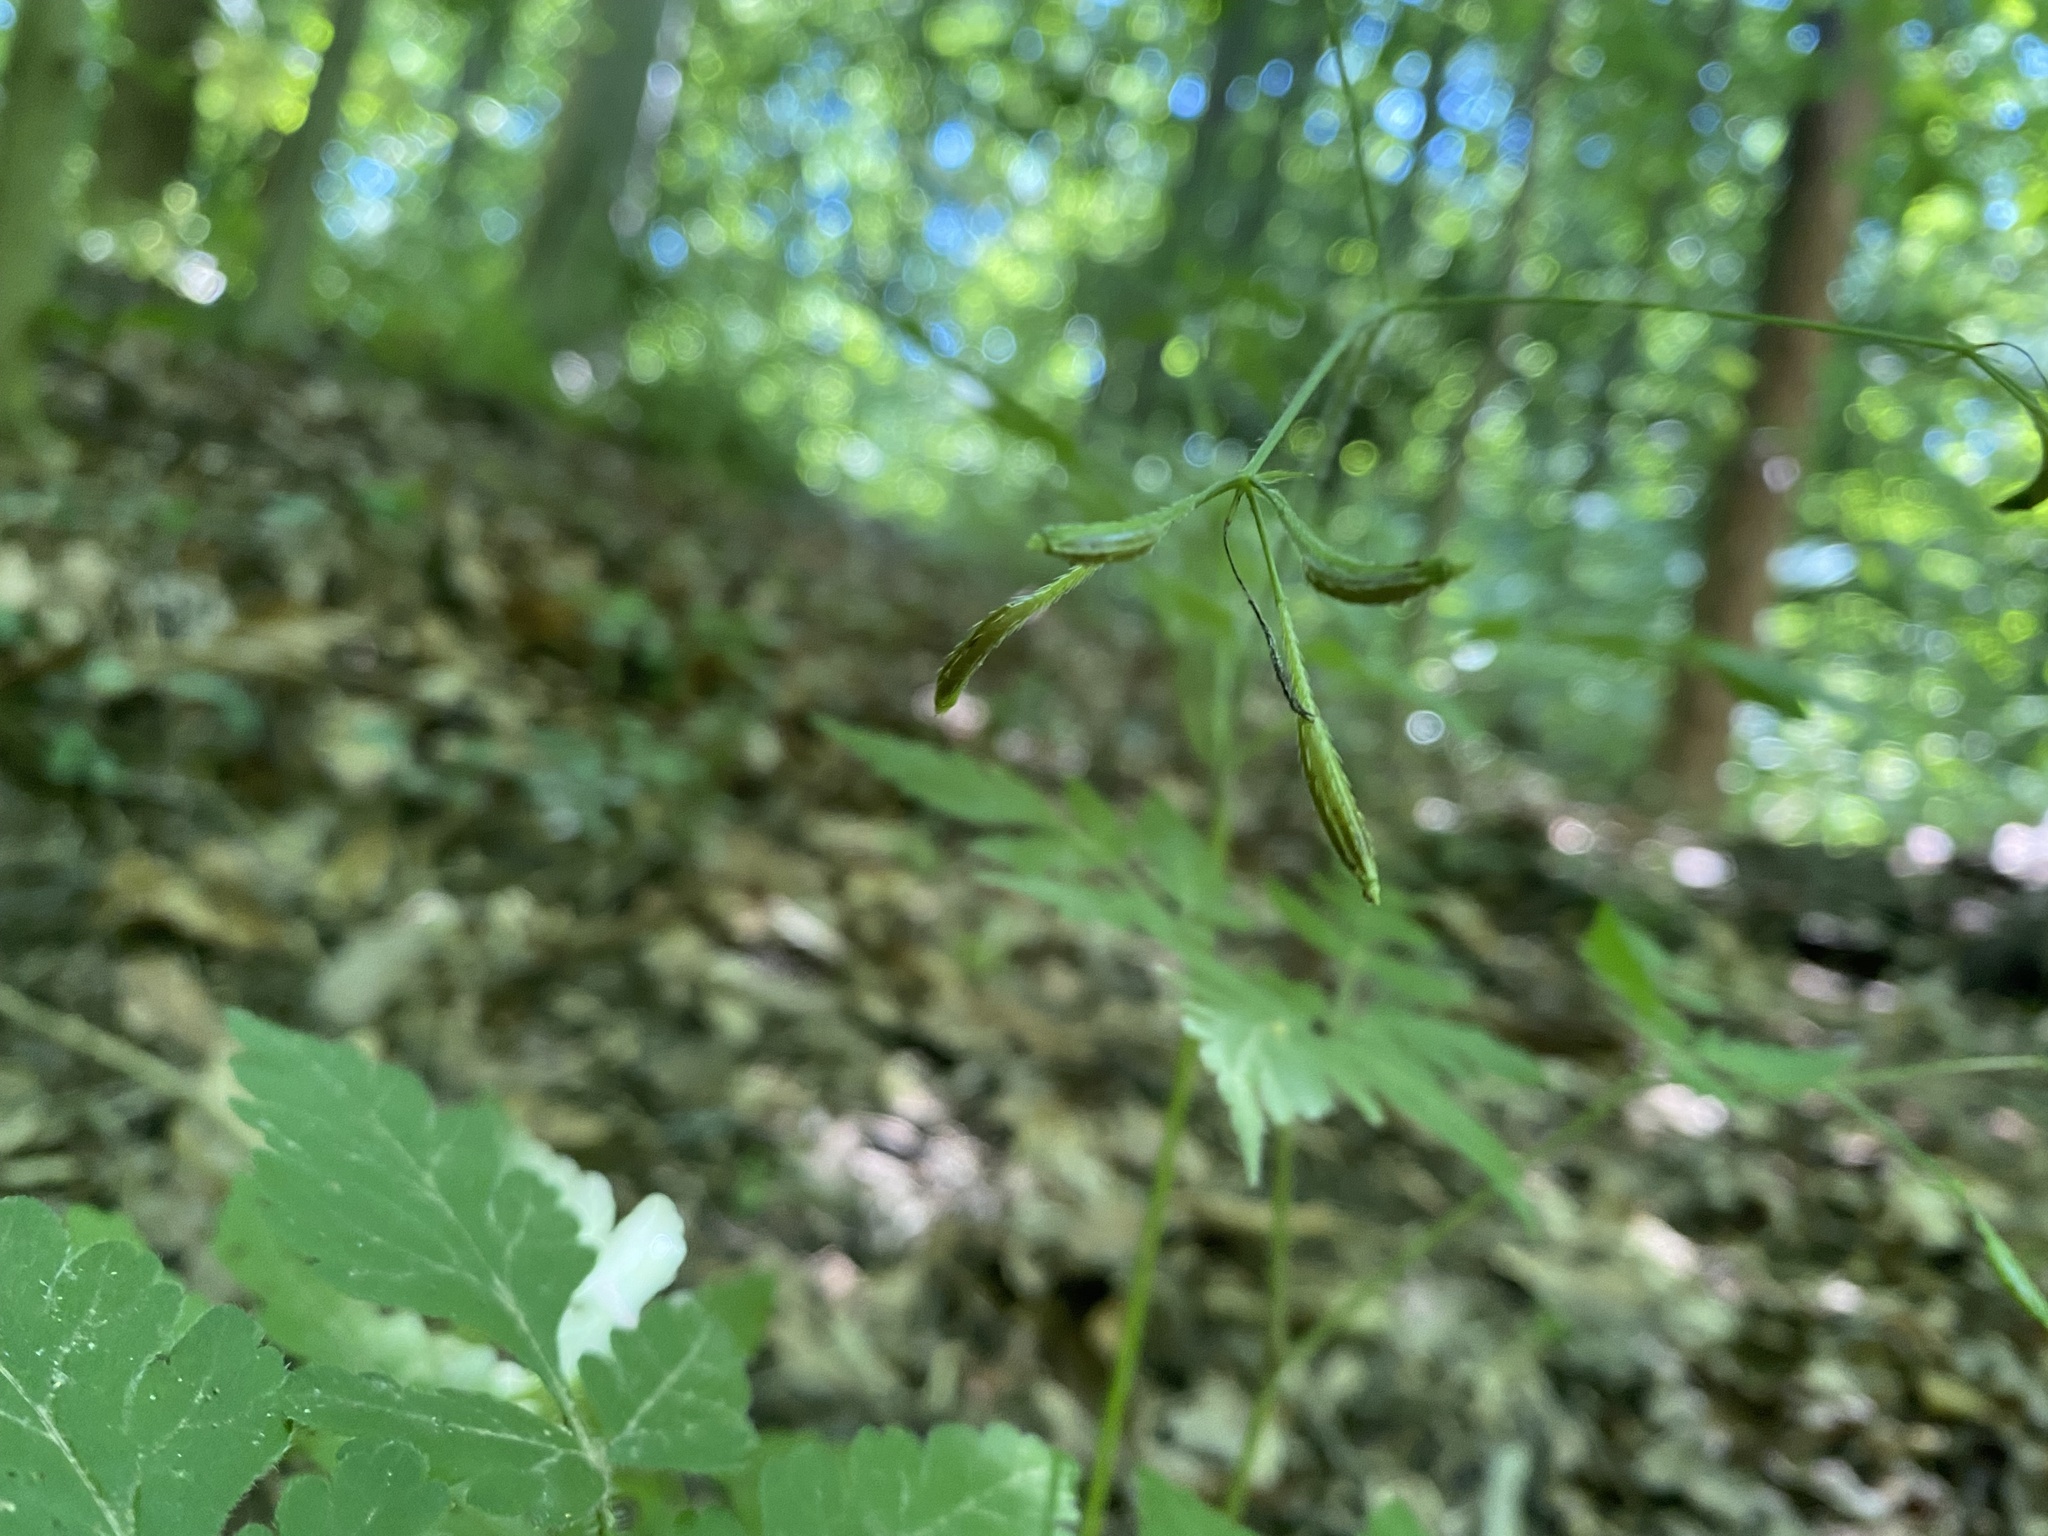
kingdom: Plantae
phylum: Tracheophyta
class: Magnoliopsida
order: Apiales
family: Apiaceae
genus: Osmorhiza
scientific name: Osmorhiza claytonii
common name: Hairy sweet cicely
